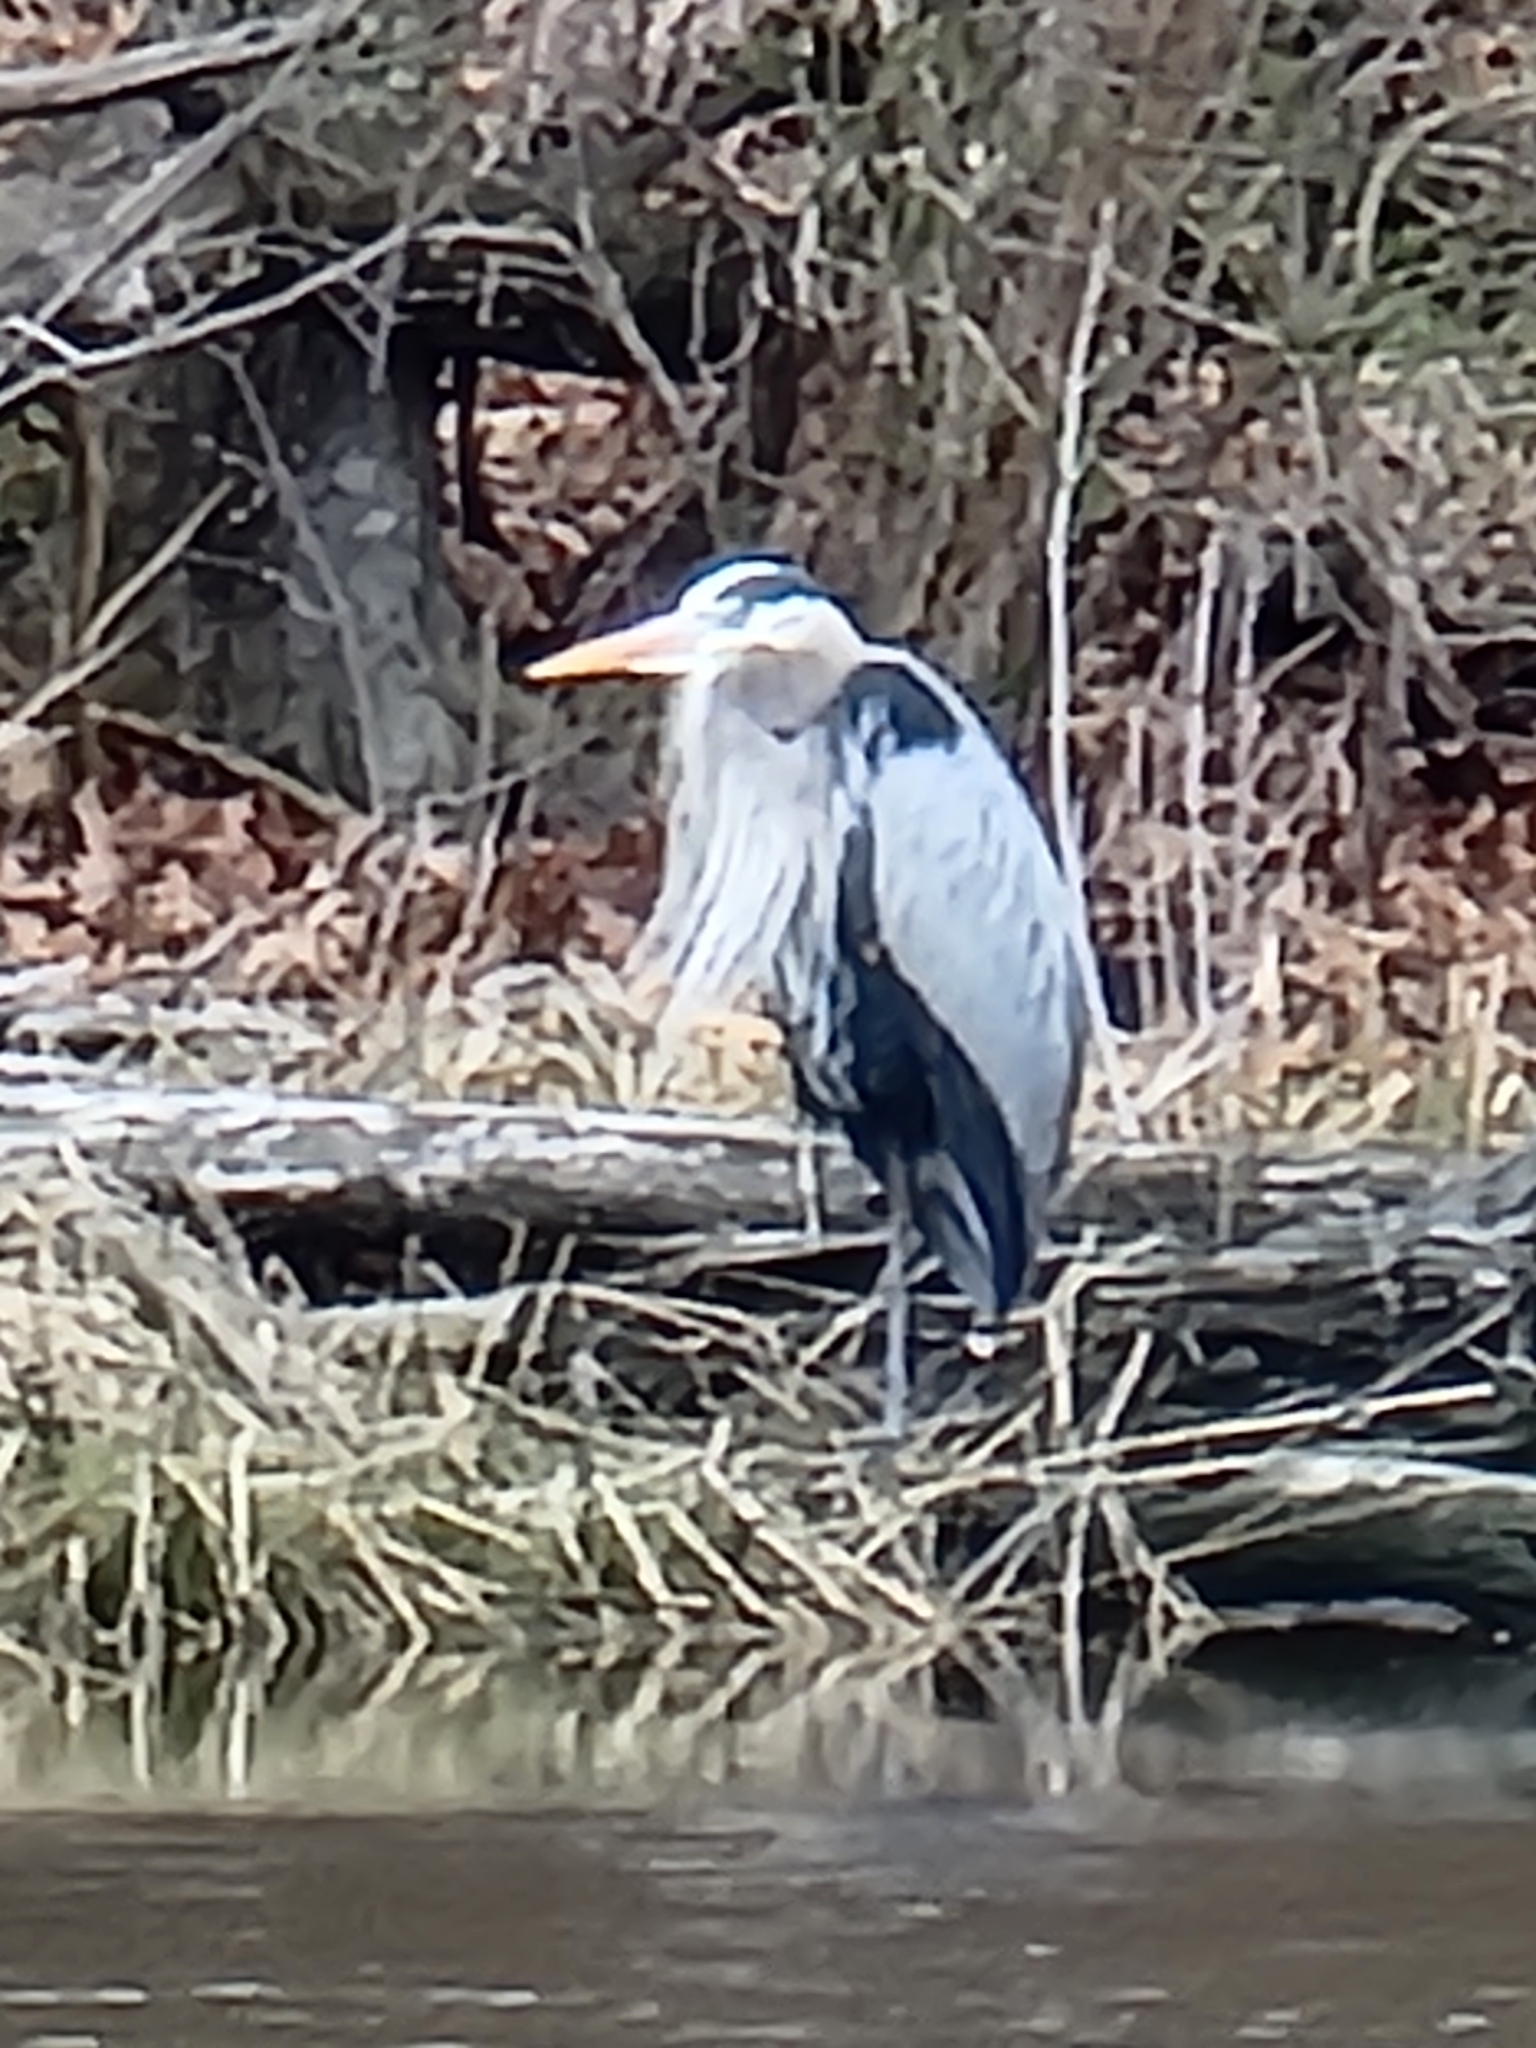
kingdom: Animalia
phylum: Chordata
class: Aves
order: Pelecaniformes
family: Ardeidae
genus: Ardea
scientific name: Ardea herodias
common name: Great blue heron
